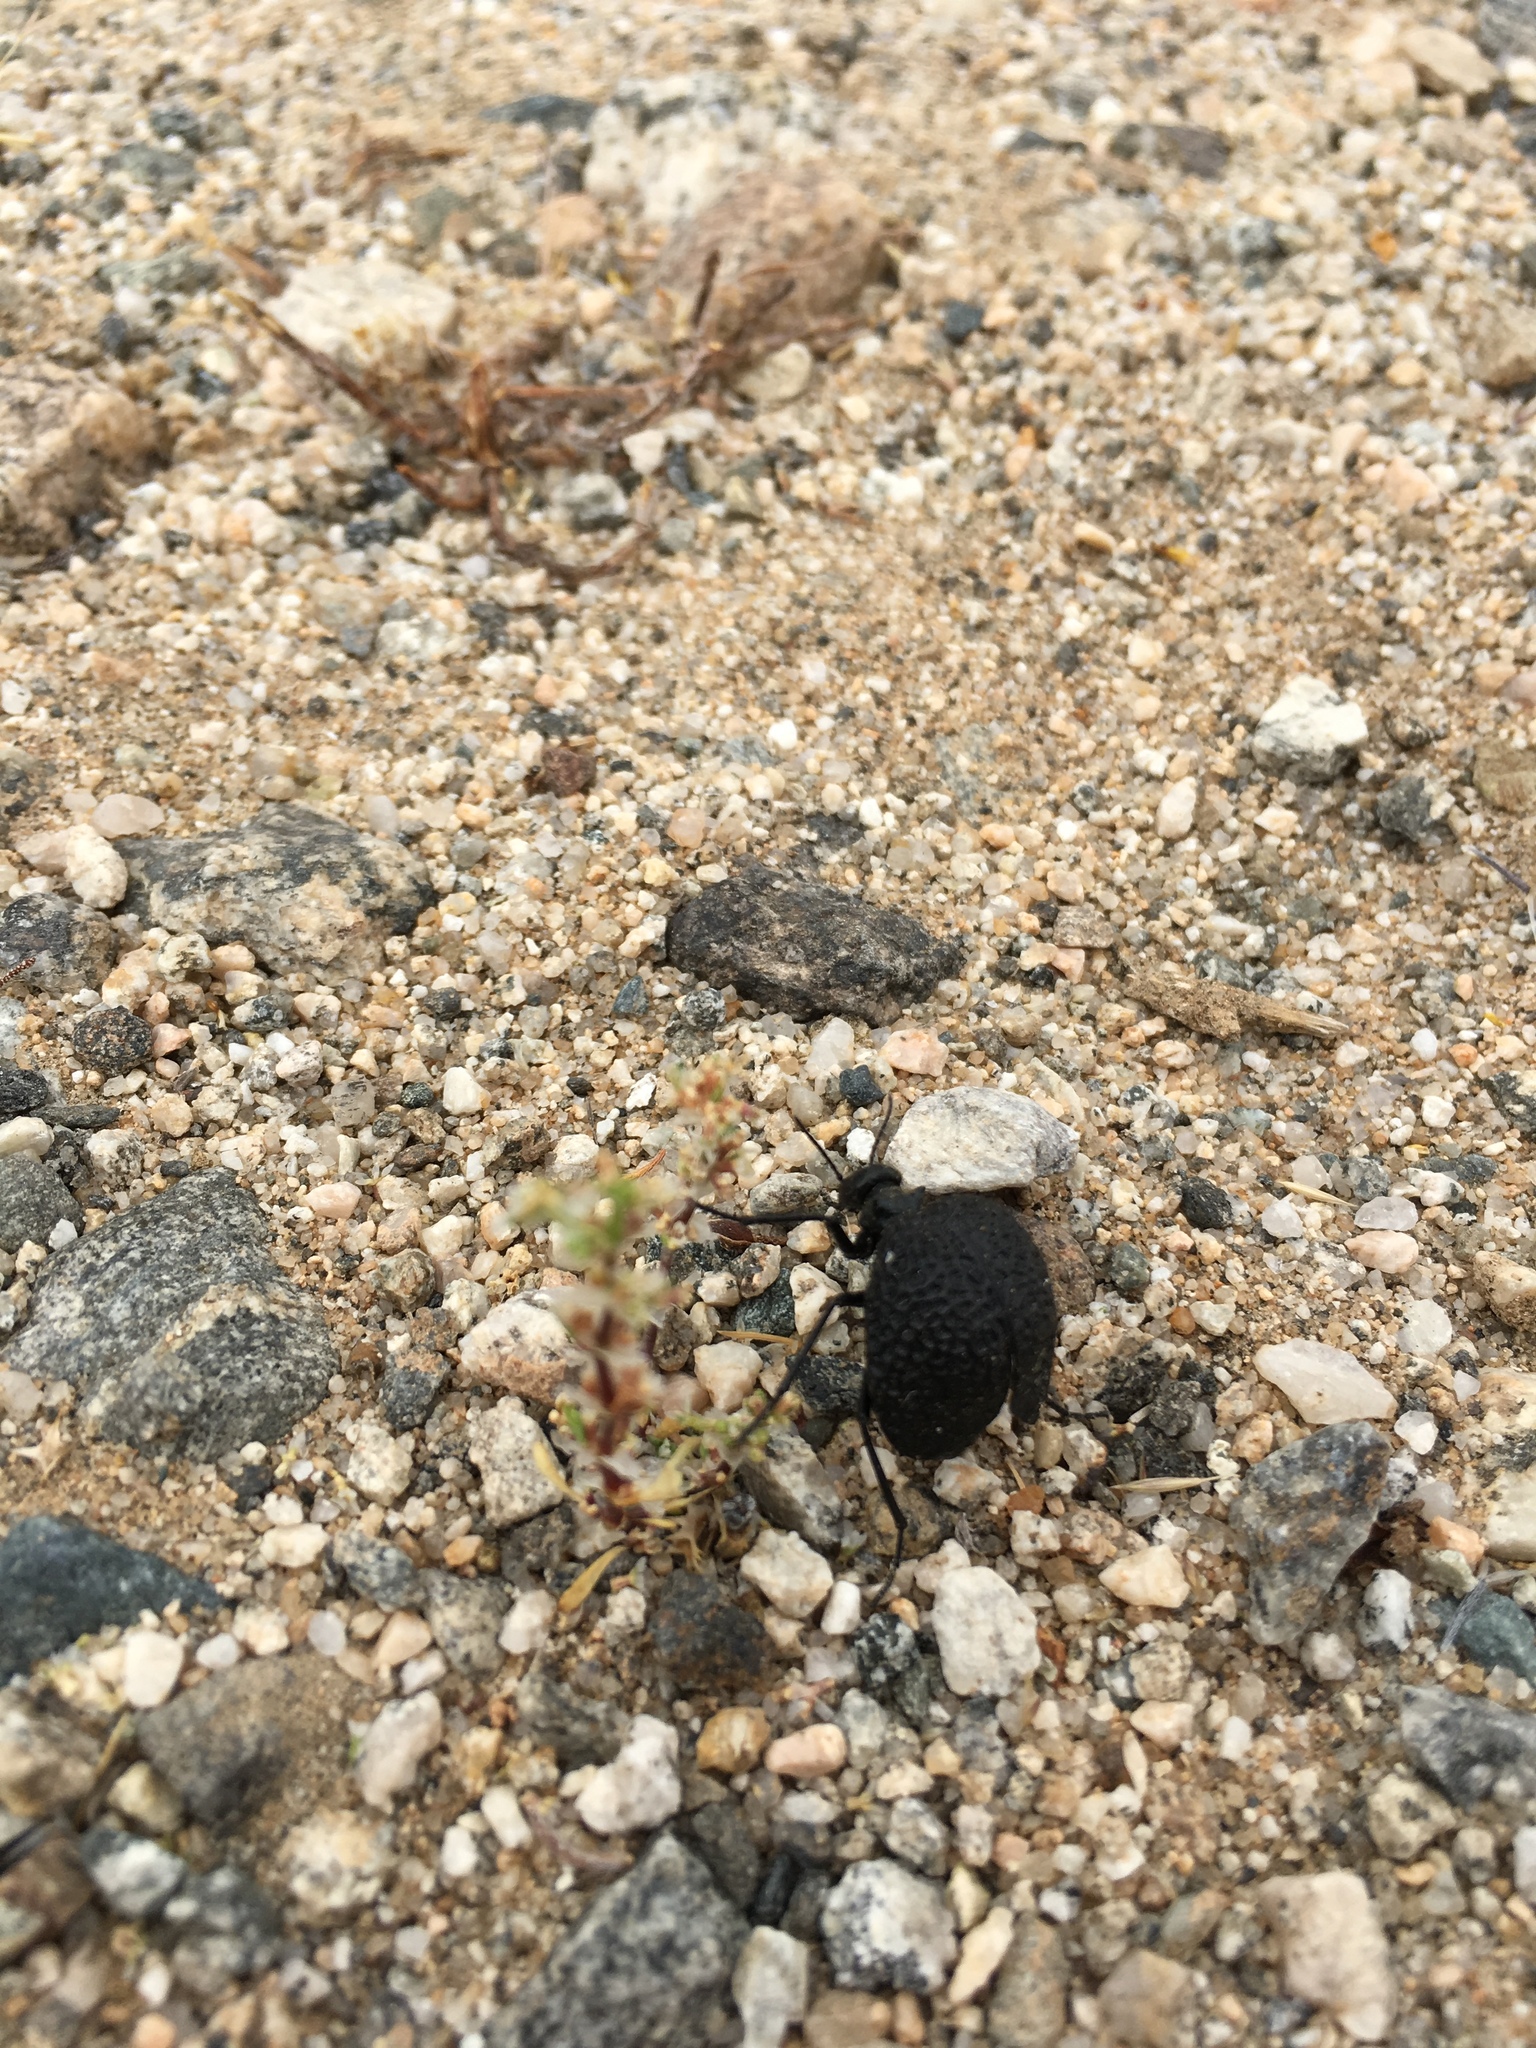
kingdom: Animalia
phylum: Arthropoda
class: Insecta
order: Coleoptera
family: Meloidae
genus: Cysteodemus
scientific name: Cysteodemus armatus
